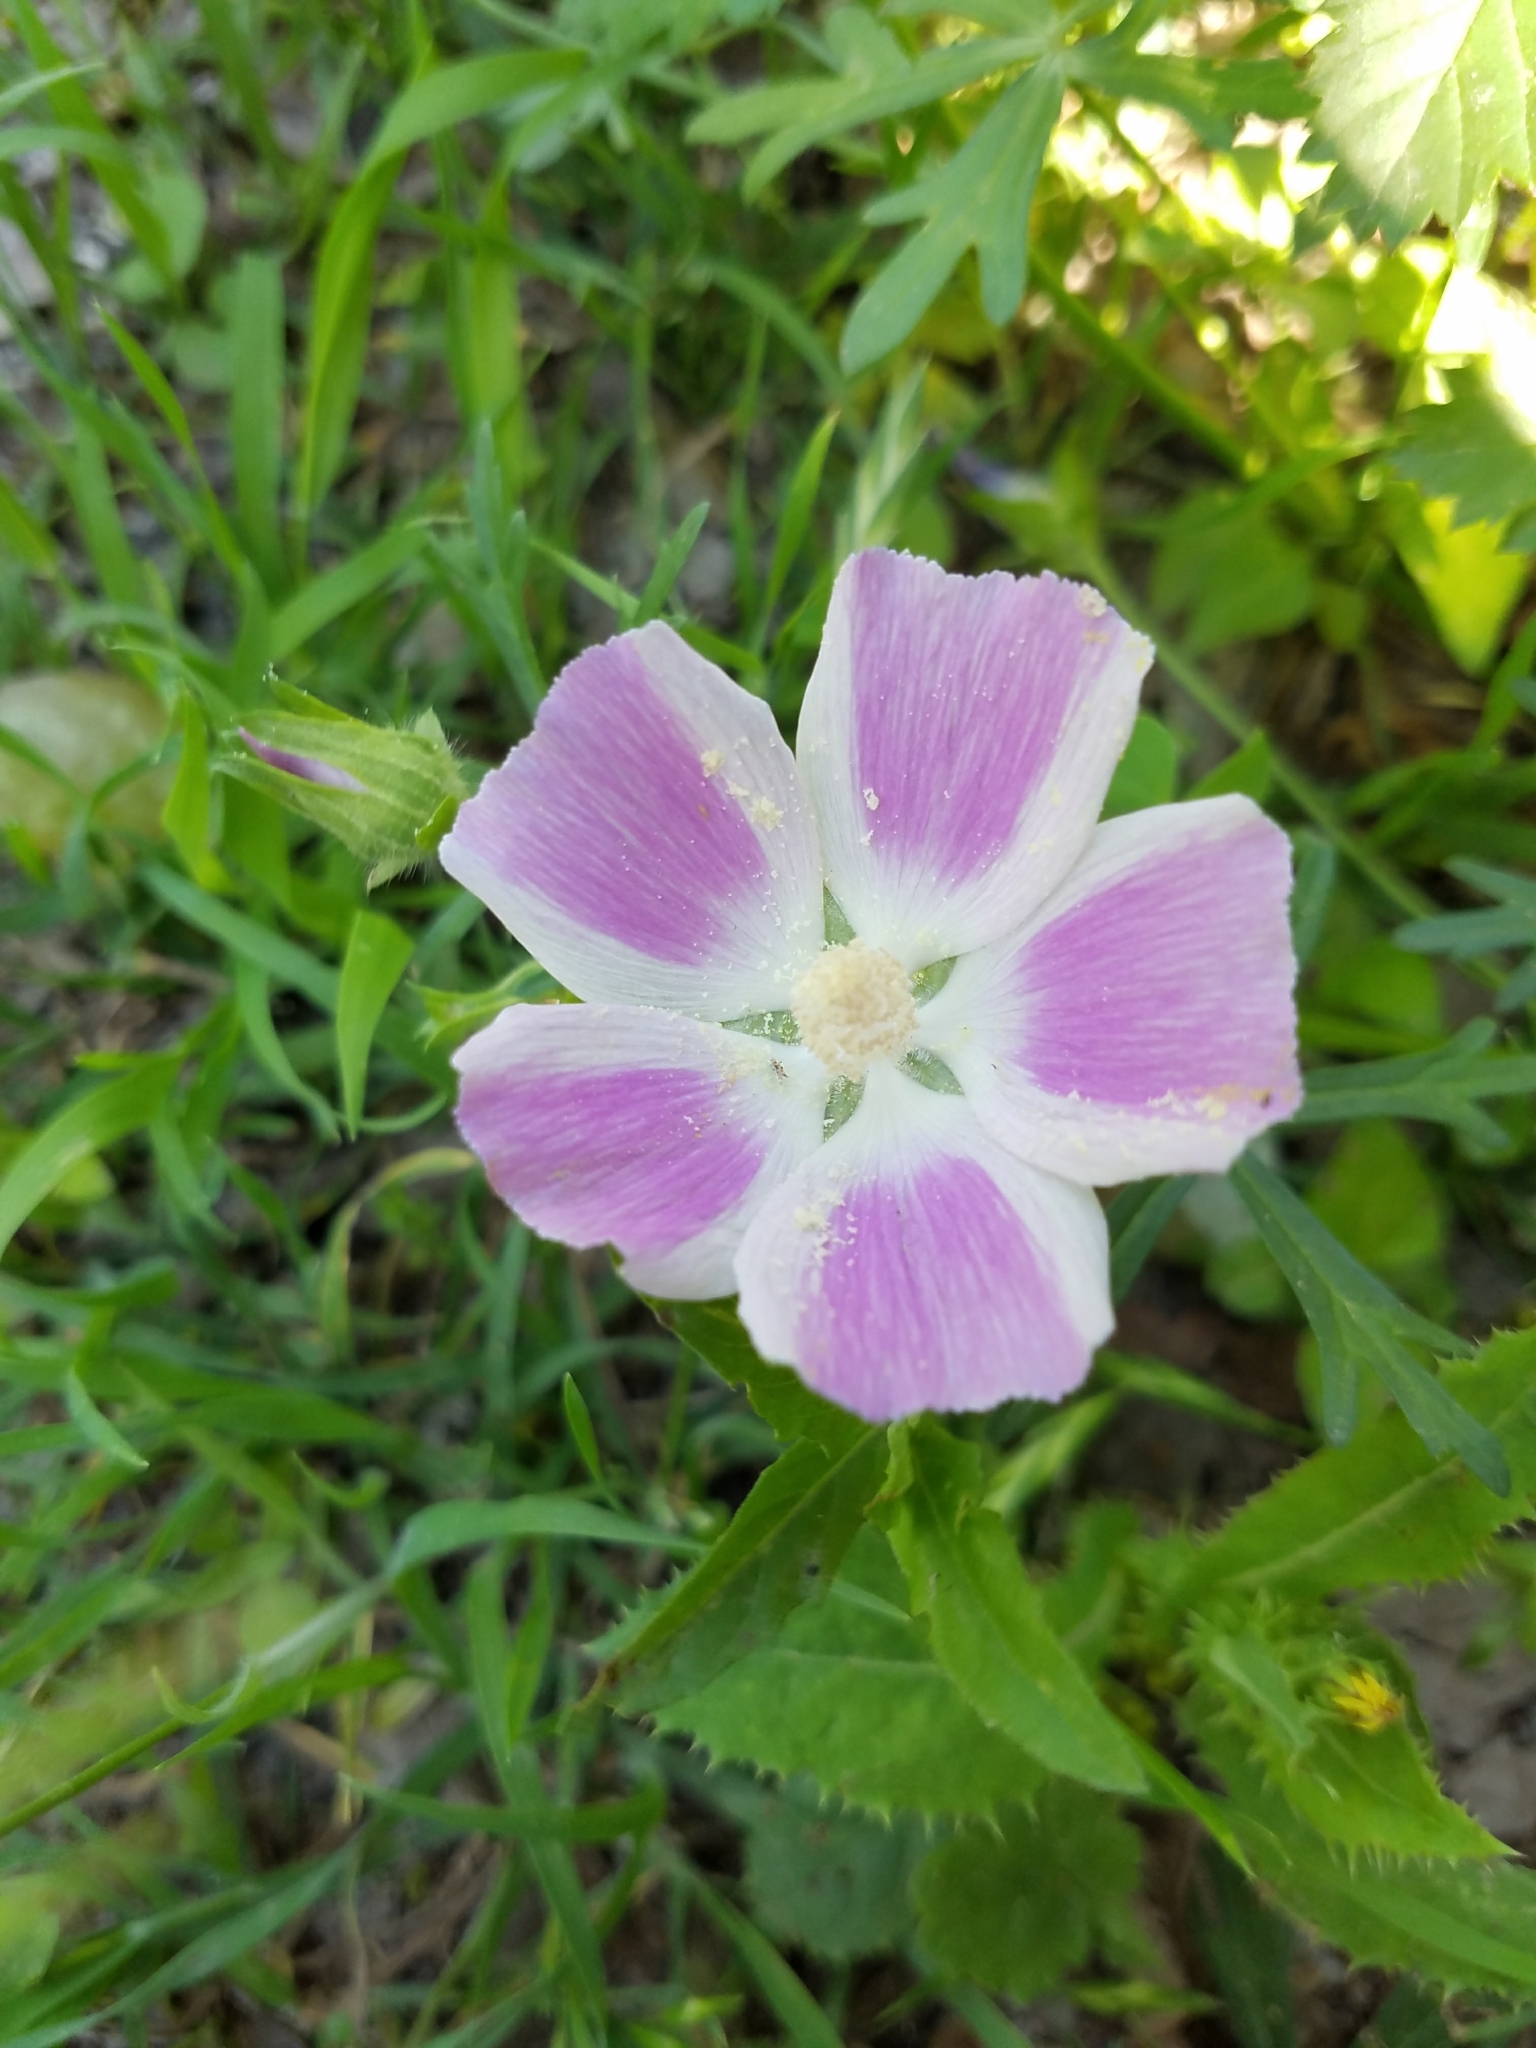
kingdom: Plantae
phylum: Tracheophyta
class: Magnoliopsida
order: Malvales
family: Malvaceae
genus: Callirhoe
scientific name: Callirhoe involucrata
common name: Purple poppy-mallow
